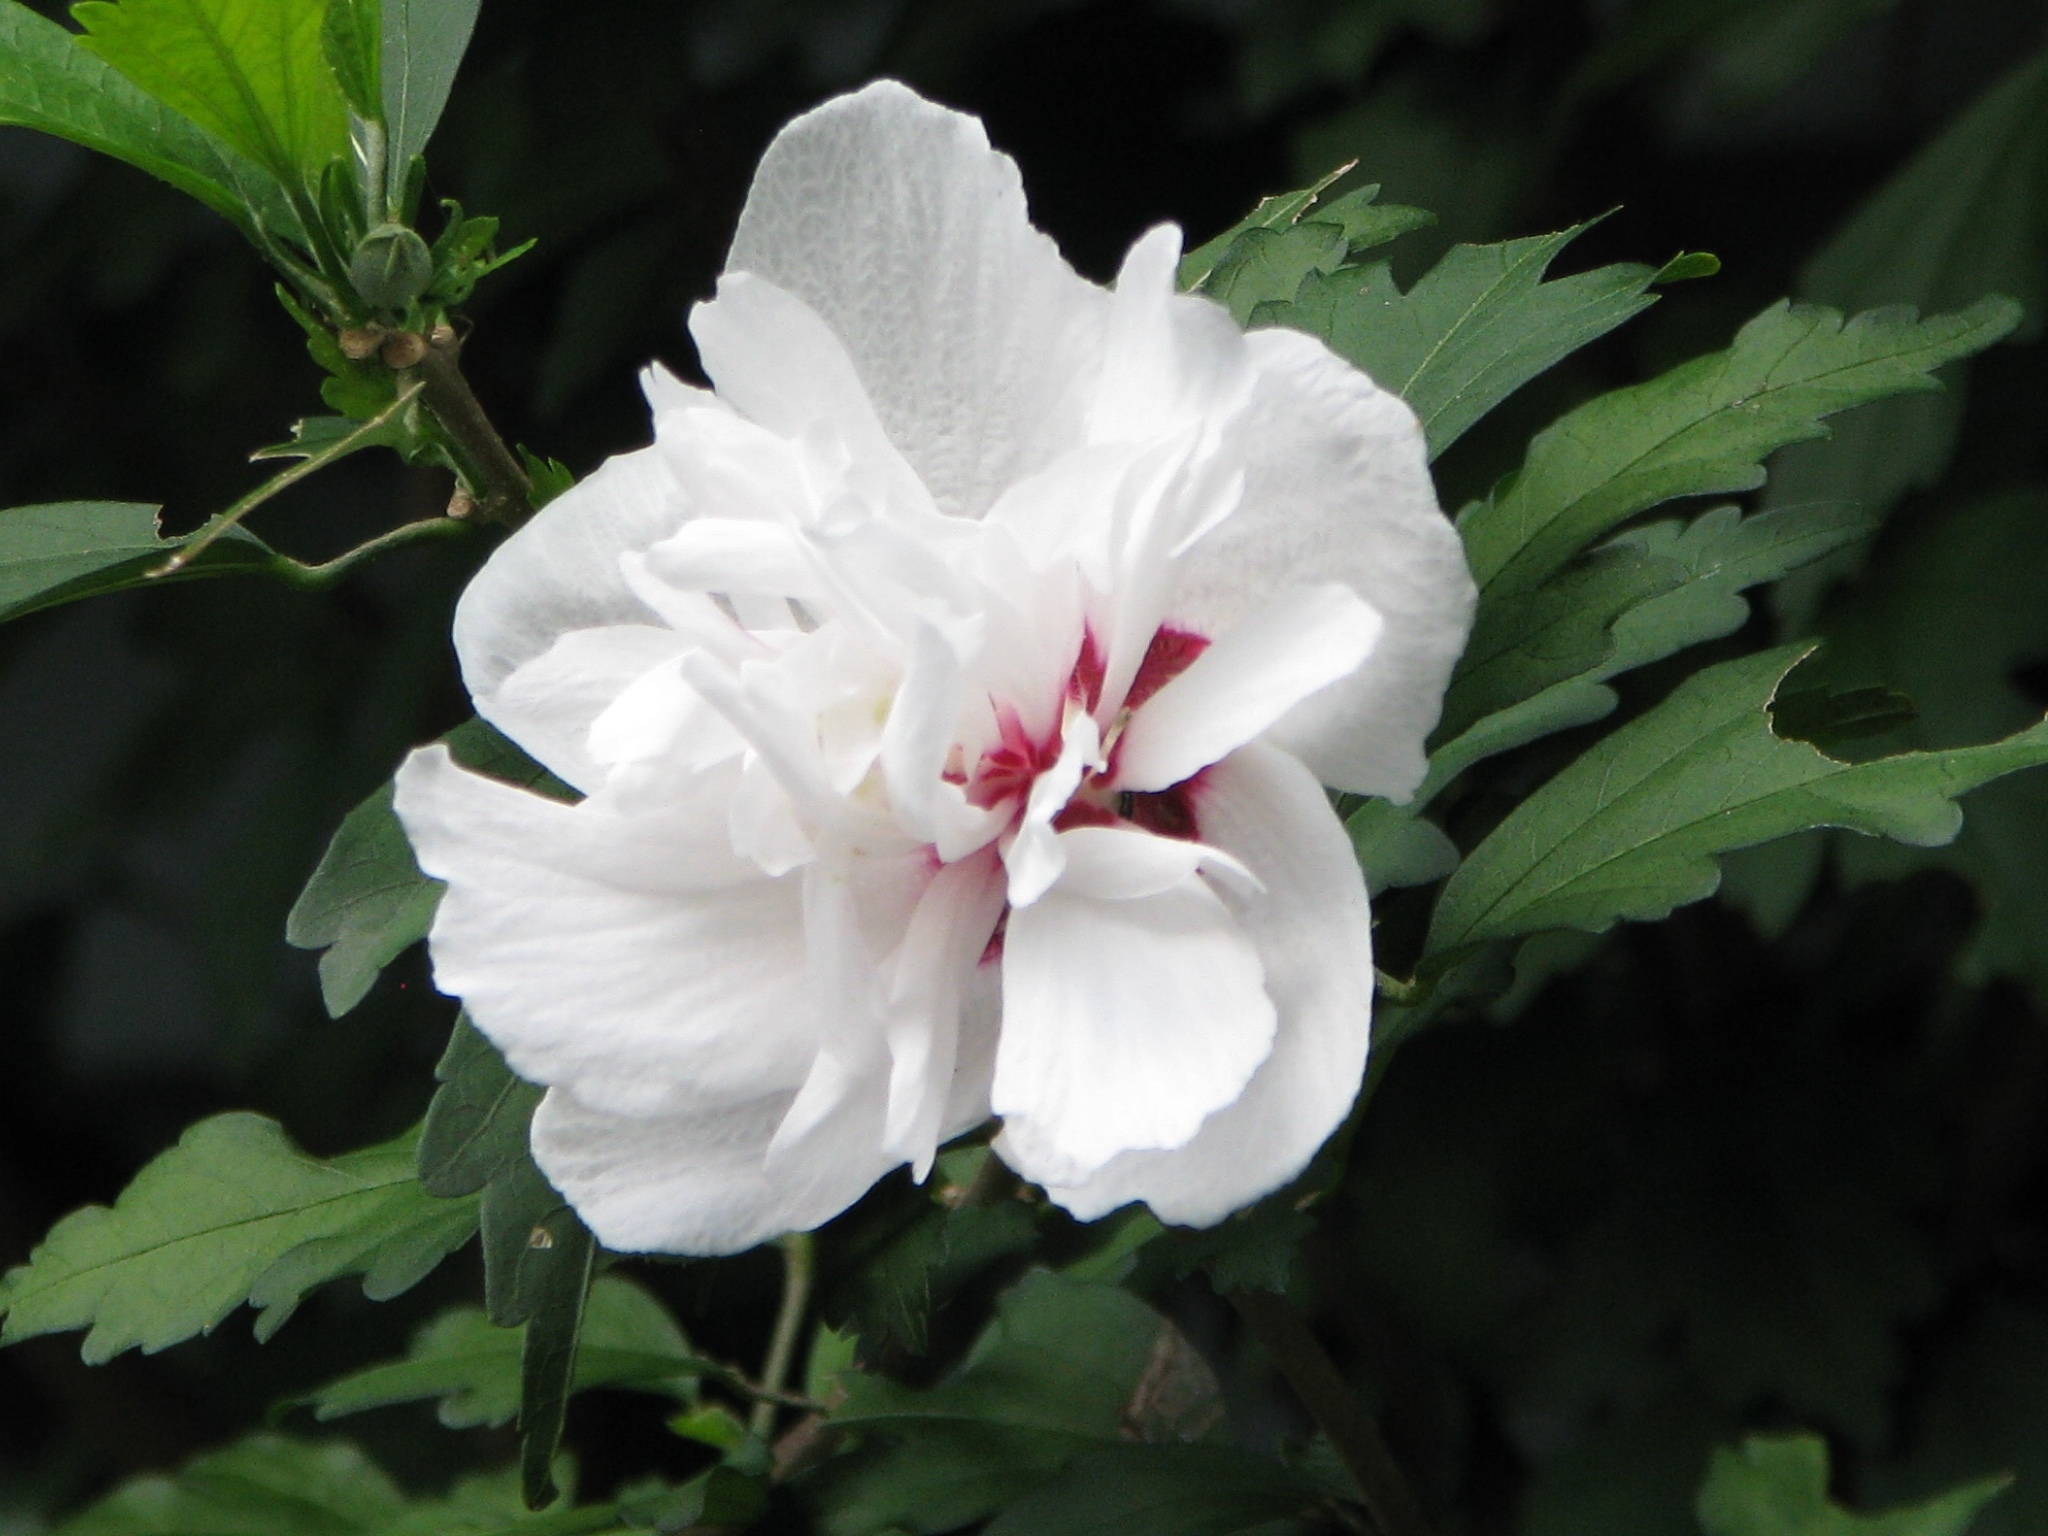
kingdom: Plantae
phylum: Tracheophyta
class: Magnoliopsida
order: Malvales
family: Malvaceae
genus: Hibiscus
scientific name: Hibiscus syriacus
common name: Syrian ketmia
